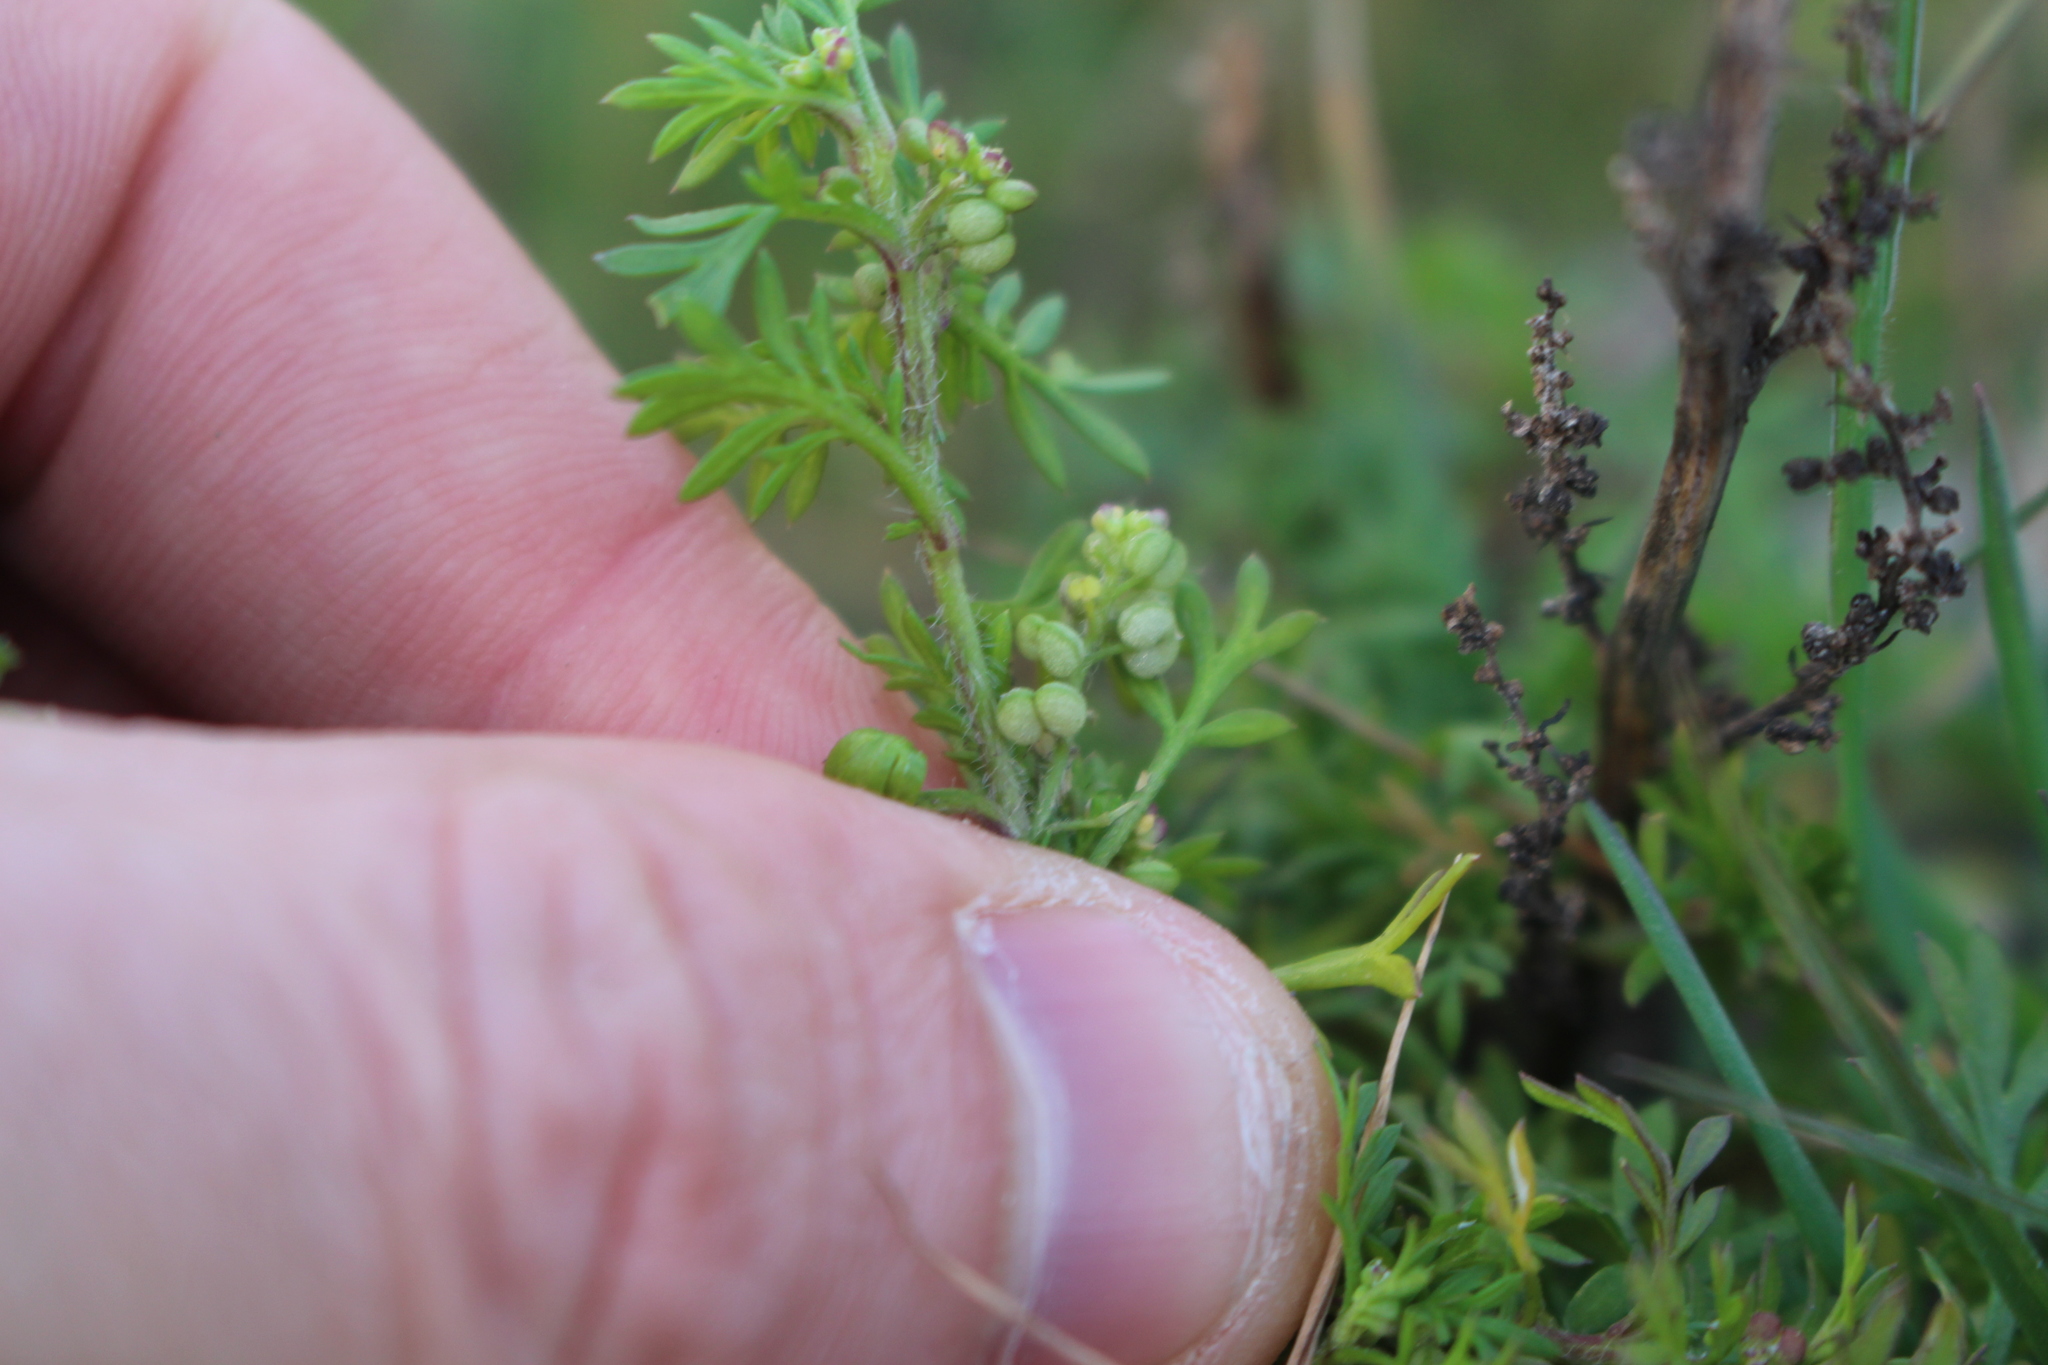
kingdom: Plantae
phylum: Tracheophyta
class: Magnoliopsida
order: Brassicales
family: Brassicaceae
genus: Lepidium
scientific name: Lepidium didymum
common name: Lesser swinecress
